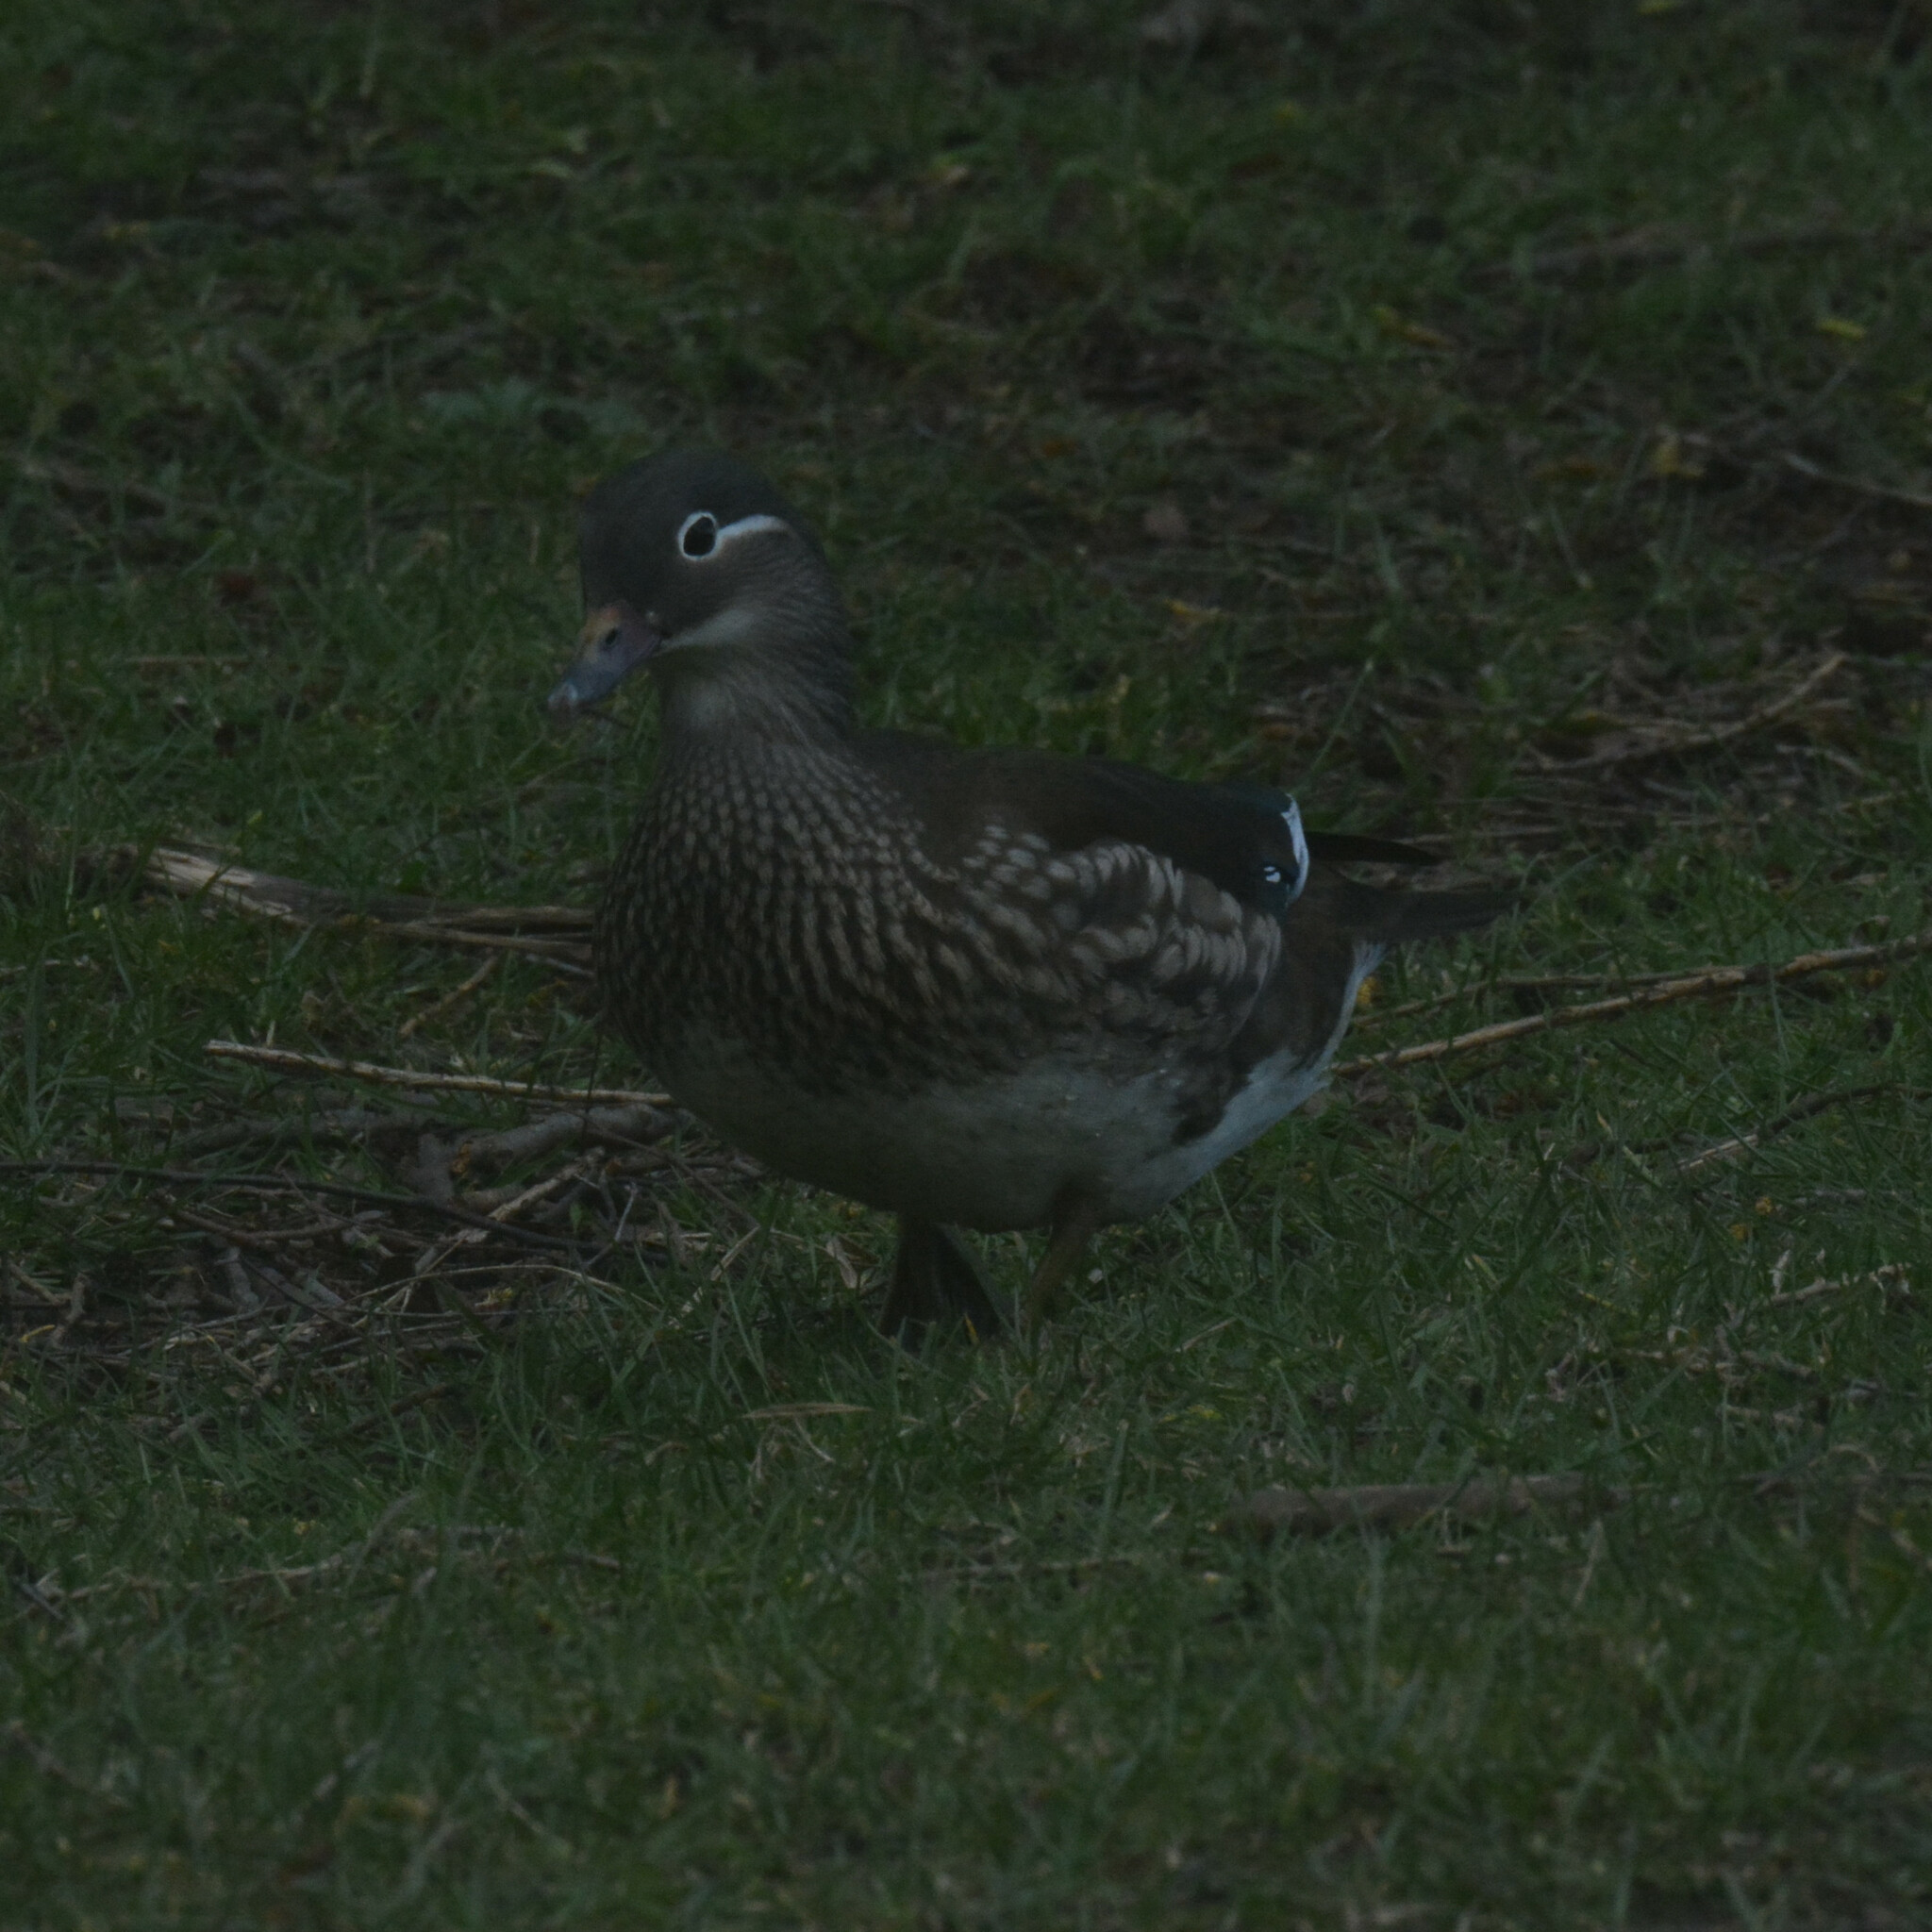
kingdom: Animalia
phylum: Chordata
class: Aves
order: Anseriformes
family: Anatidae
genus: Aix
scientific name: Aix galericulata
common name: Mandarin duck
